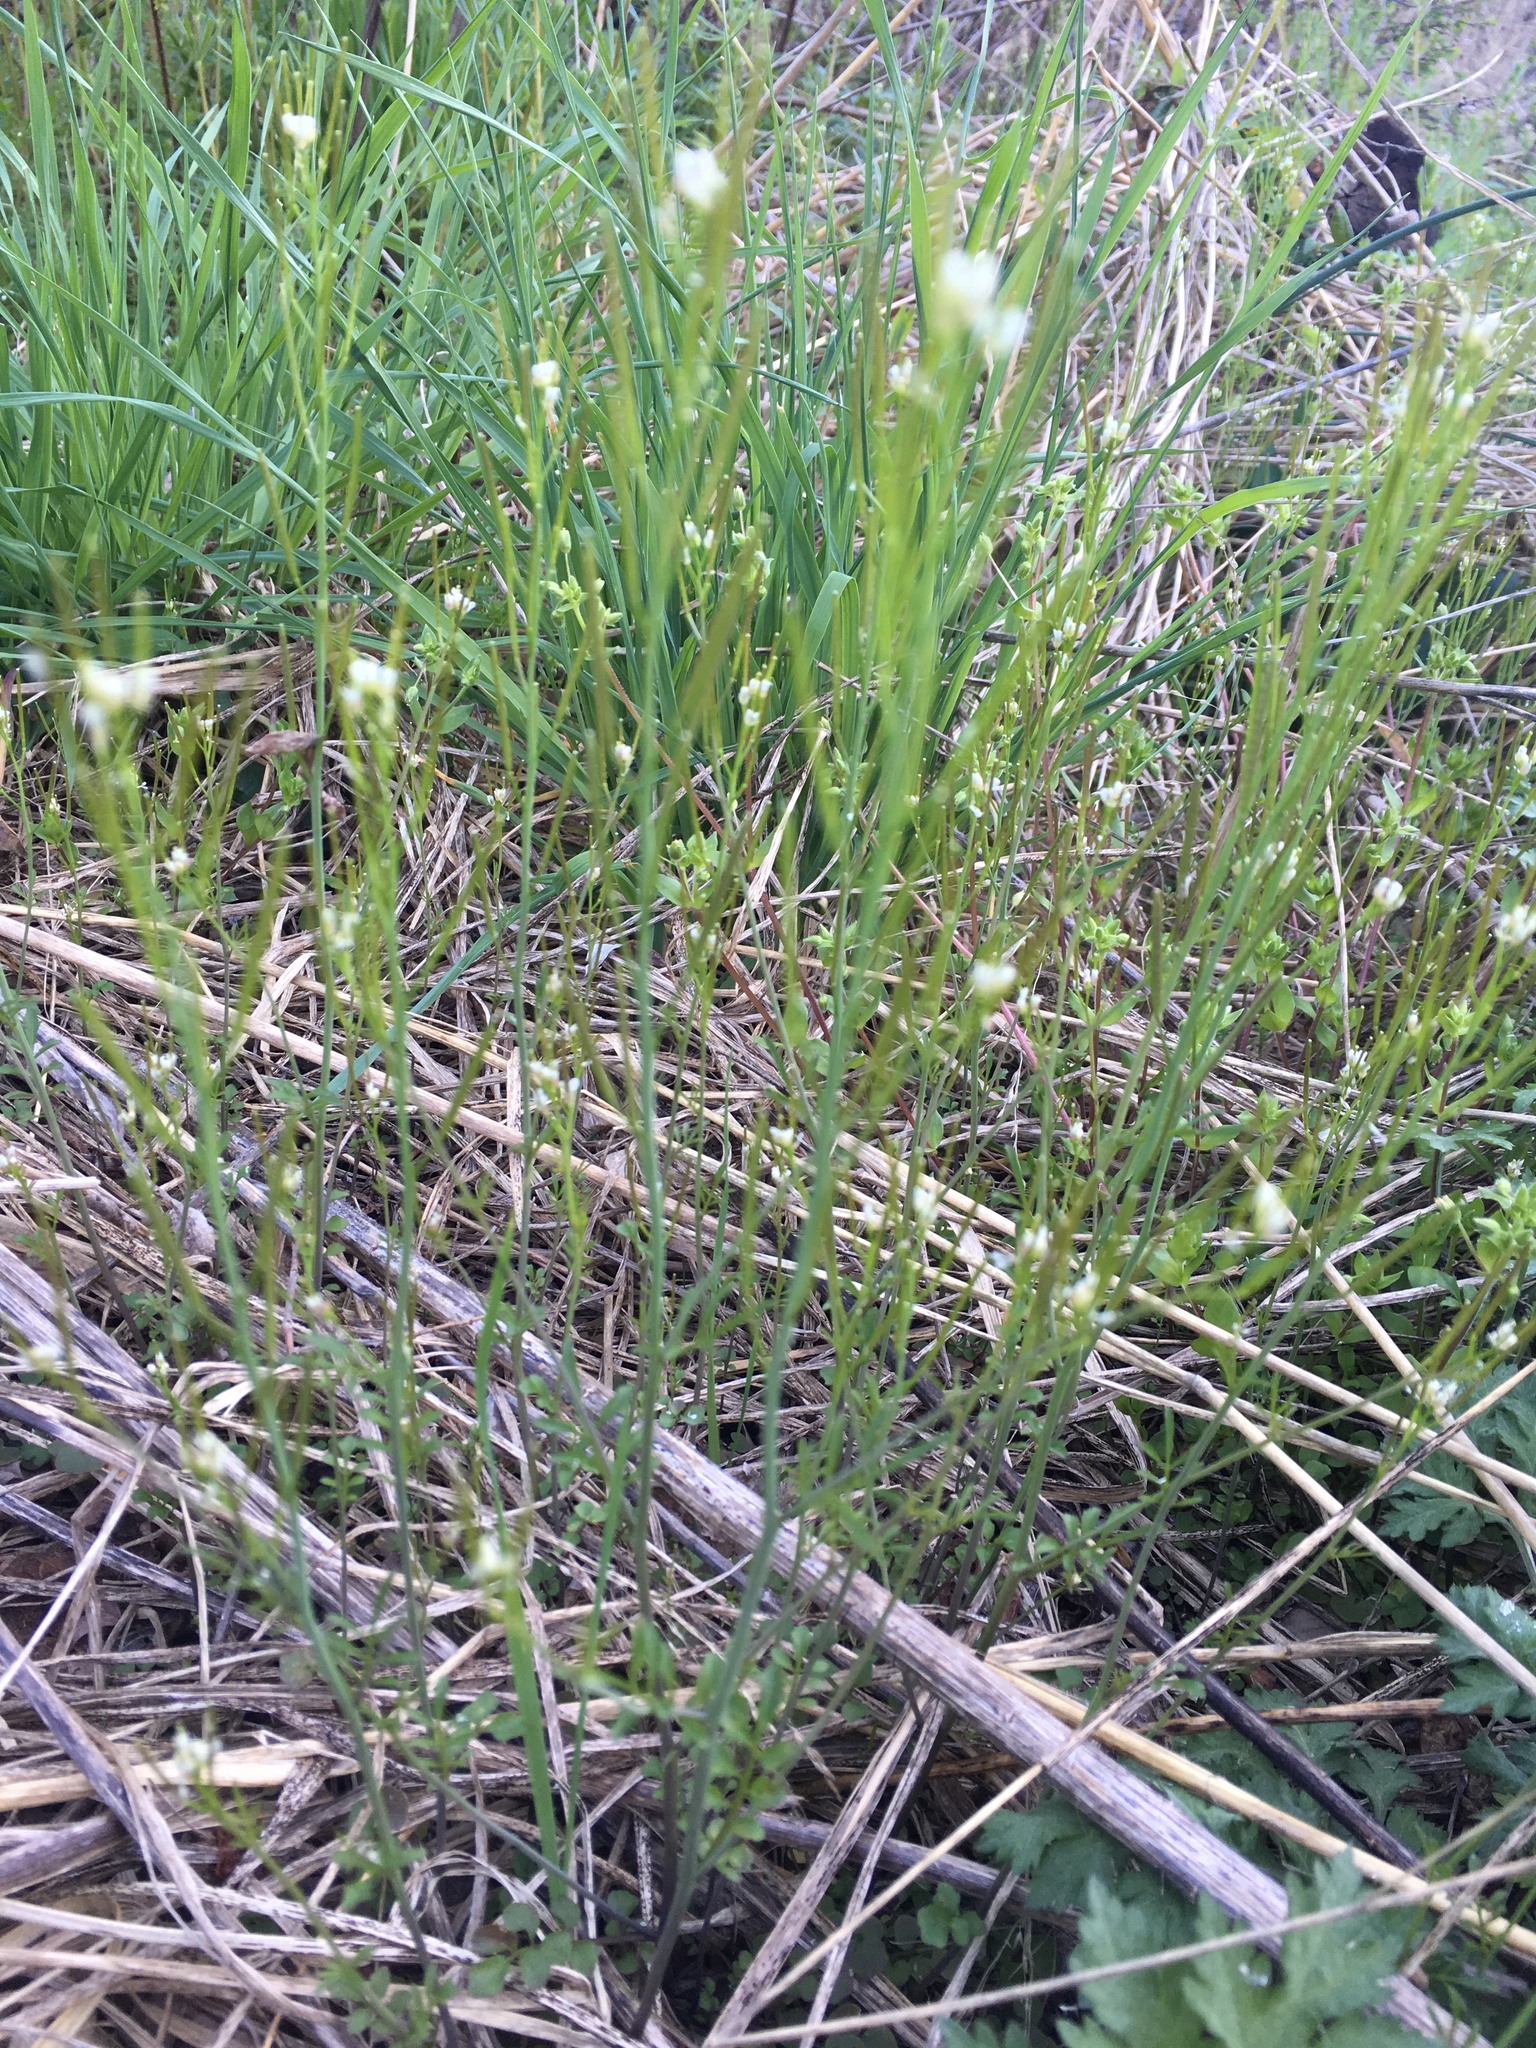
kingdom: Plantae
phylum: Tracheophyta
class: Magnoliopsida
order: Brassicales
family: Brassicaceae
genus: Cardamine
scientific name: Cardamine hirsuta
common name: Hairy bittercress
